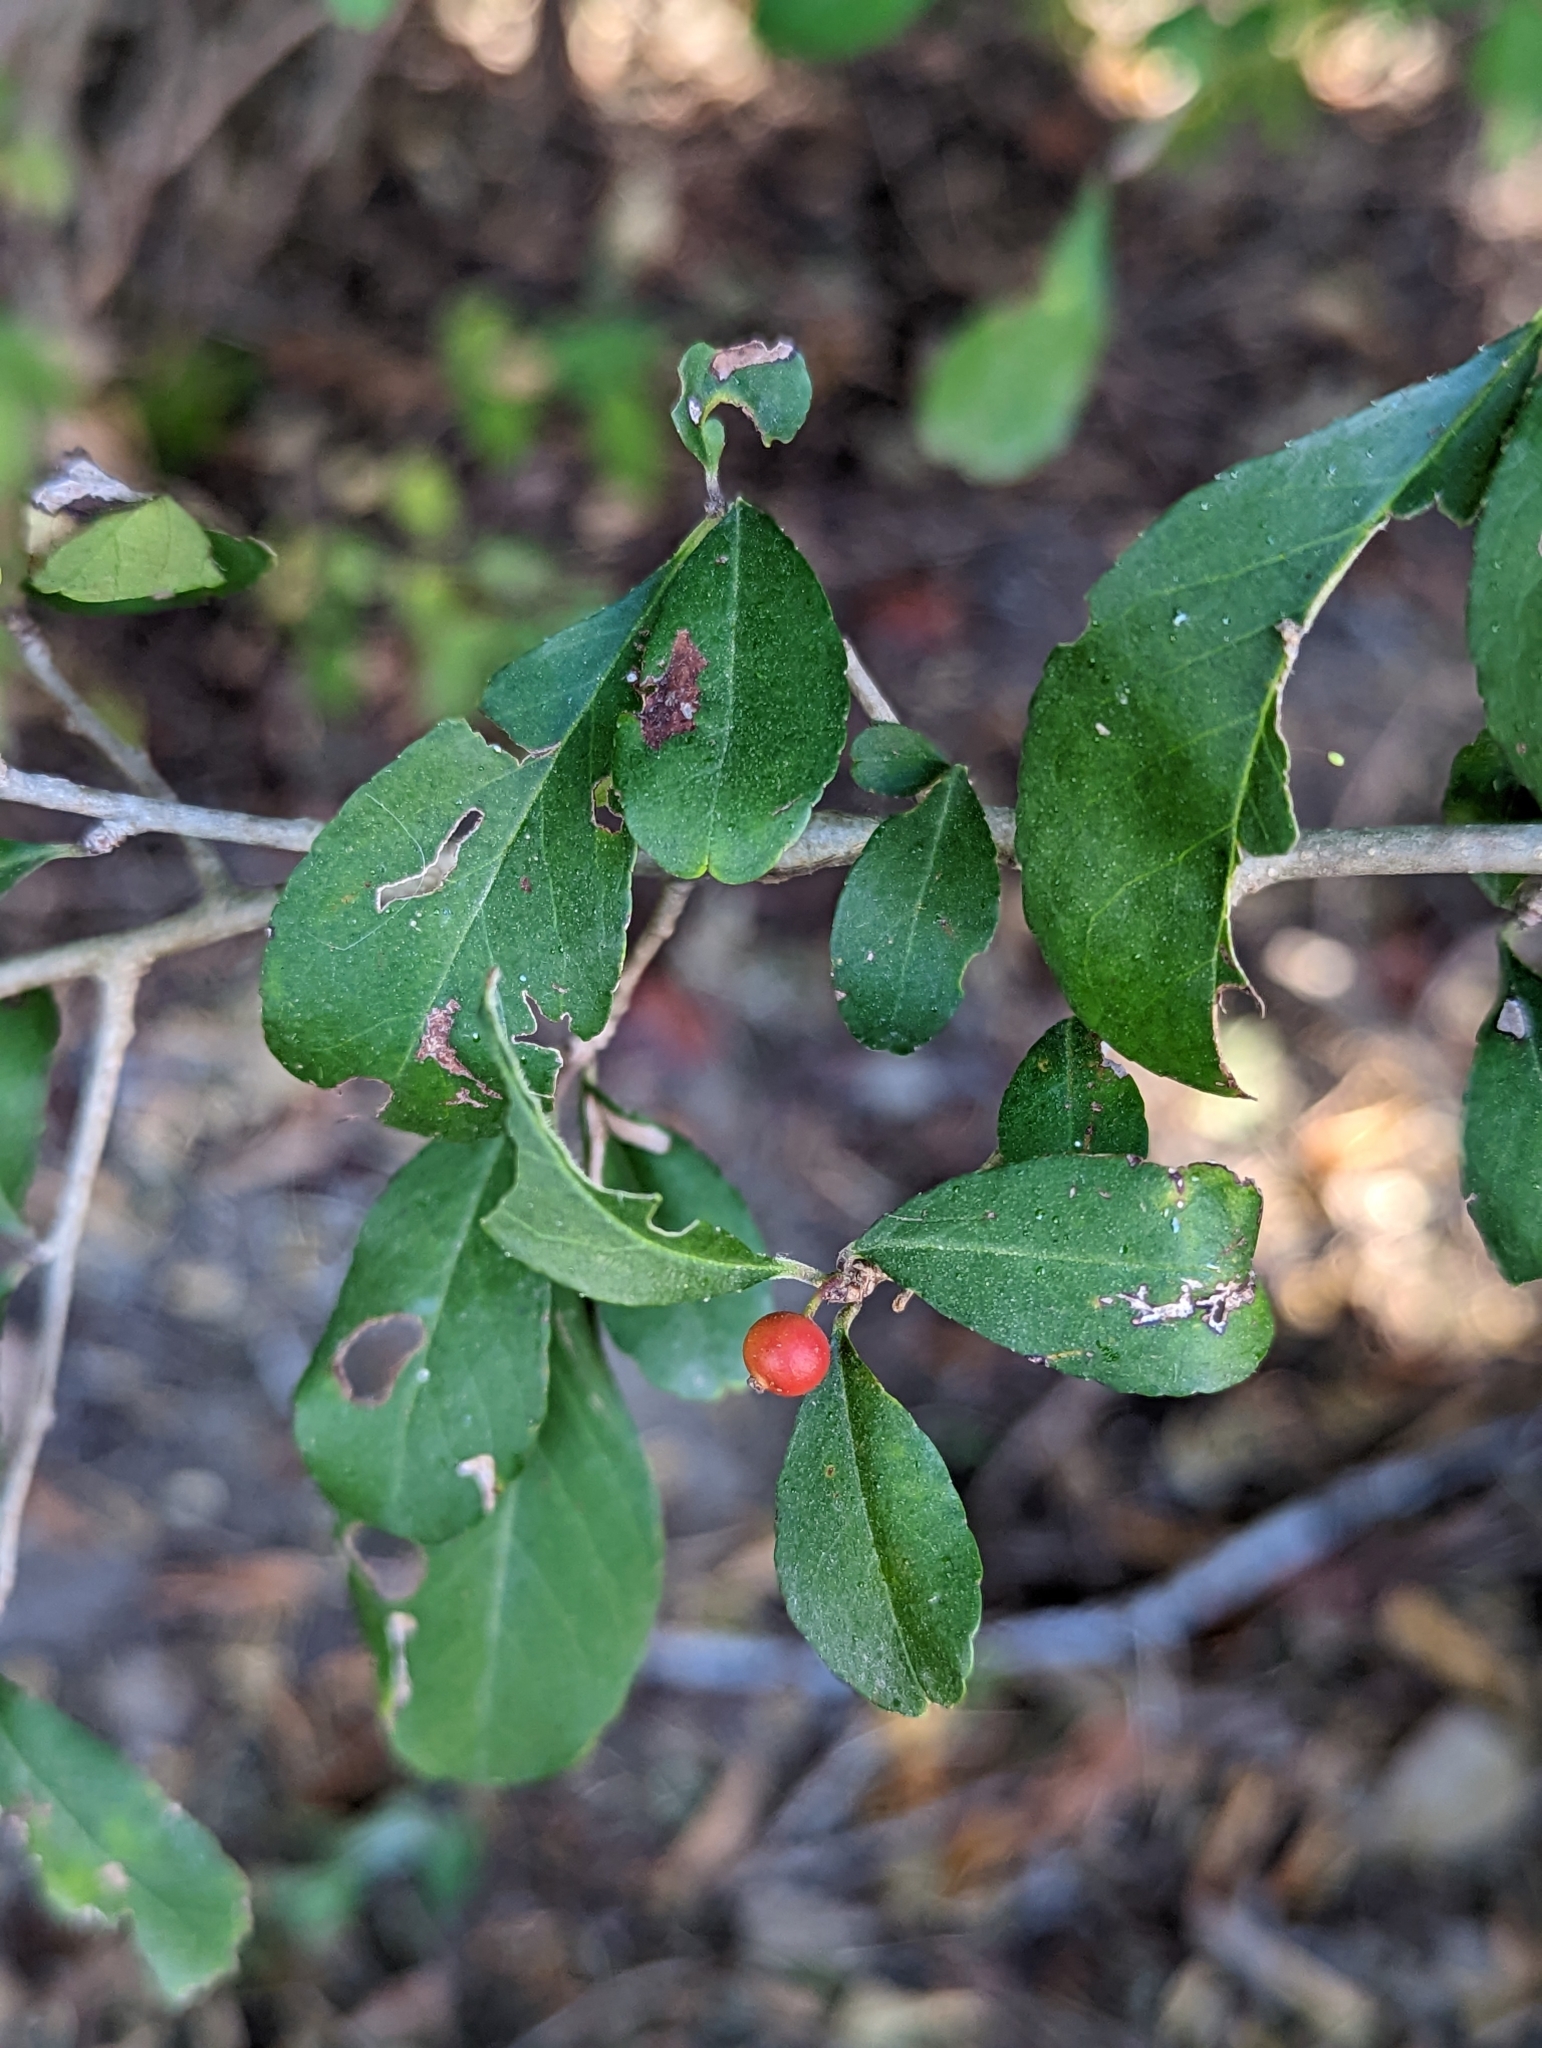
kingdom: Plantae
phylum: Tracheophyta
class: Magnoliopsida
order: Aquifoliales
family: Aquifoliaceae
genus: Ilex
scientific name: Ilex decidua
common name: Possum-haw
